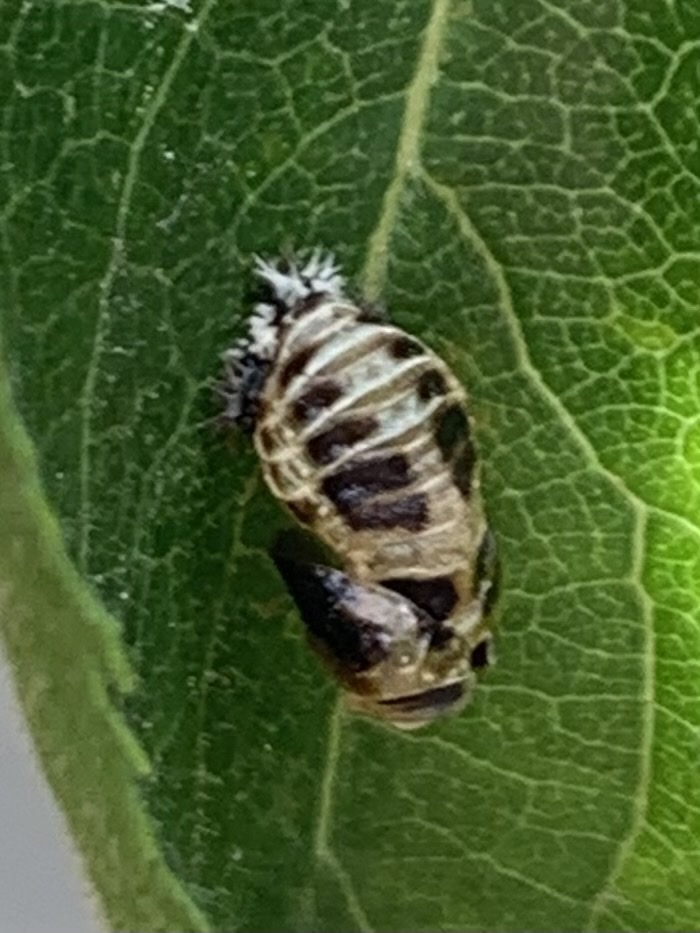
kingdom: Animalia
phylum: Arthropoda
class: Insecta
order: Coleoptera
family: Coccinellidae
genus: Harmonia
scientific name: Harmonia axyridis
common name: Harlequin ladybird
